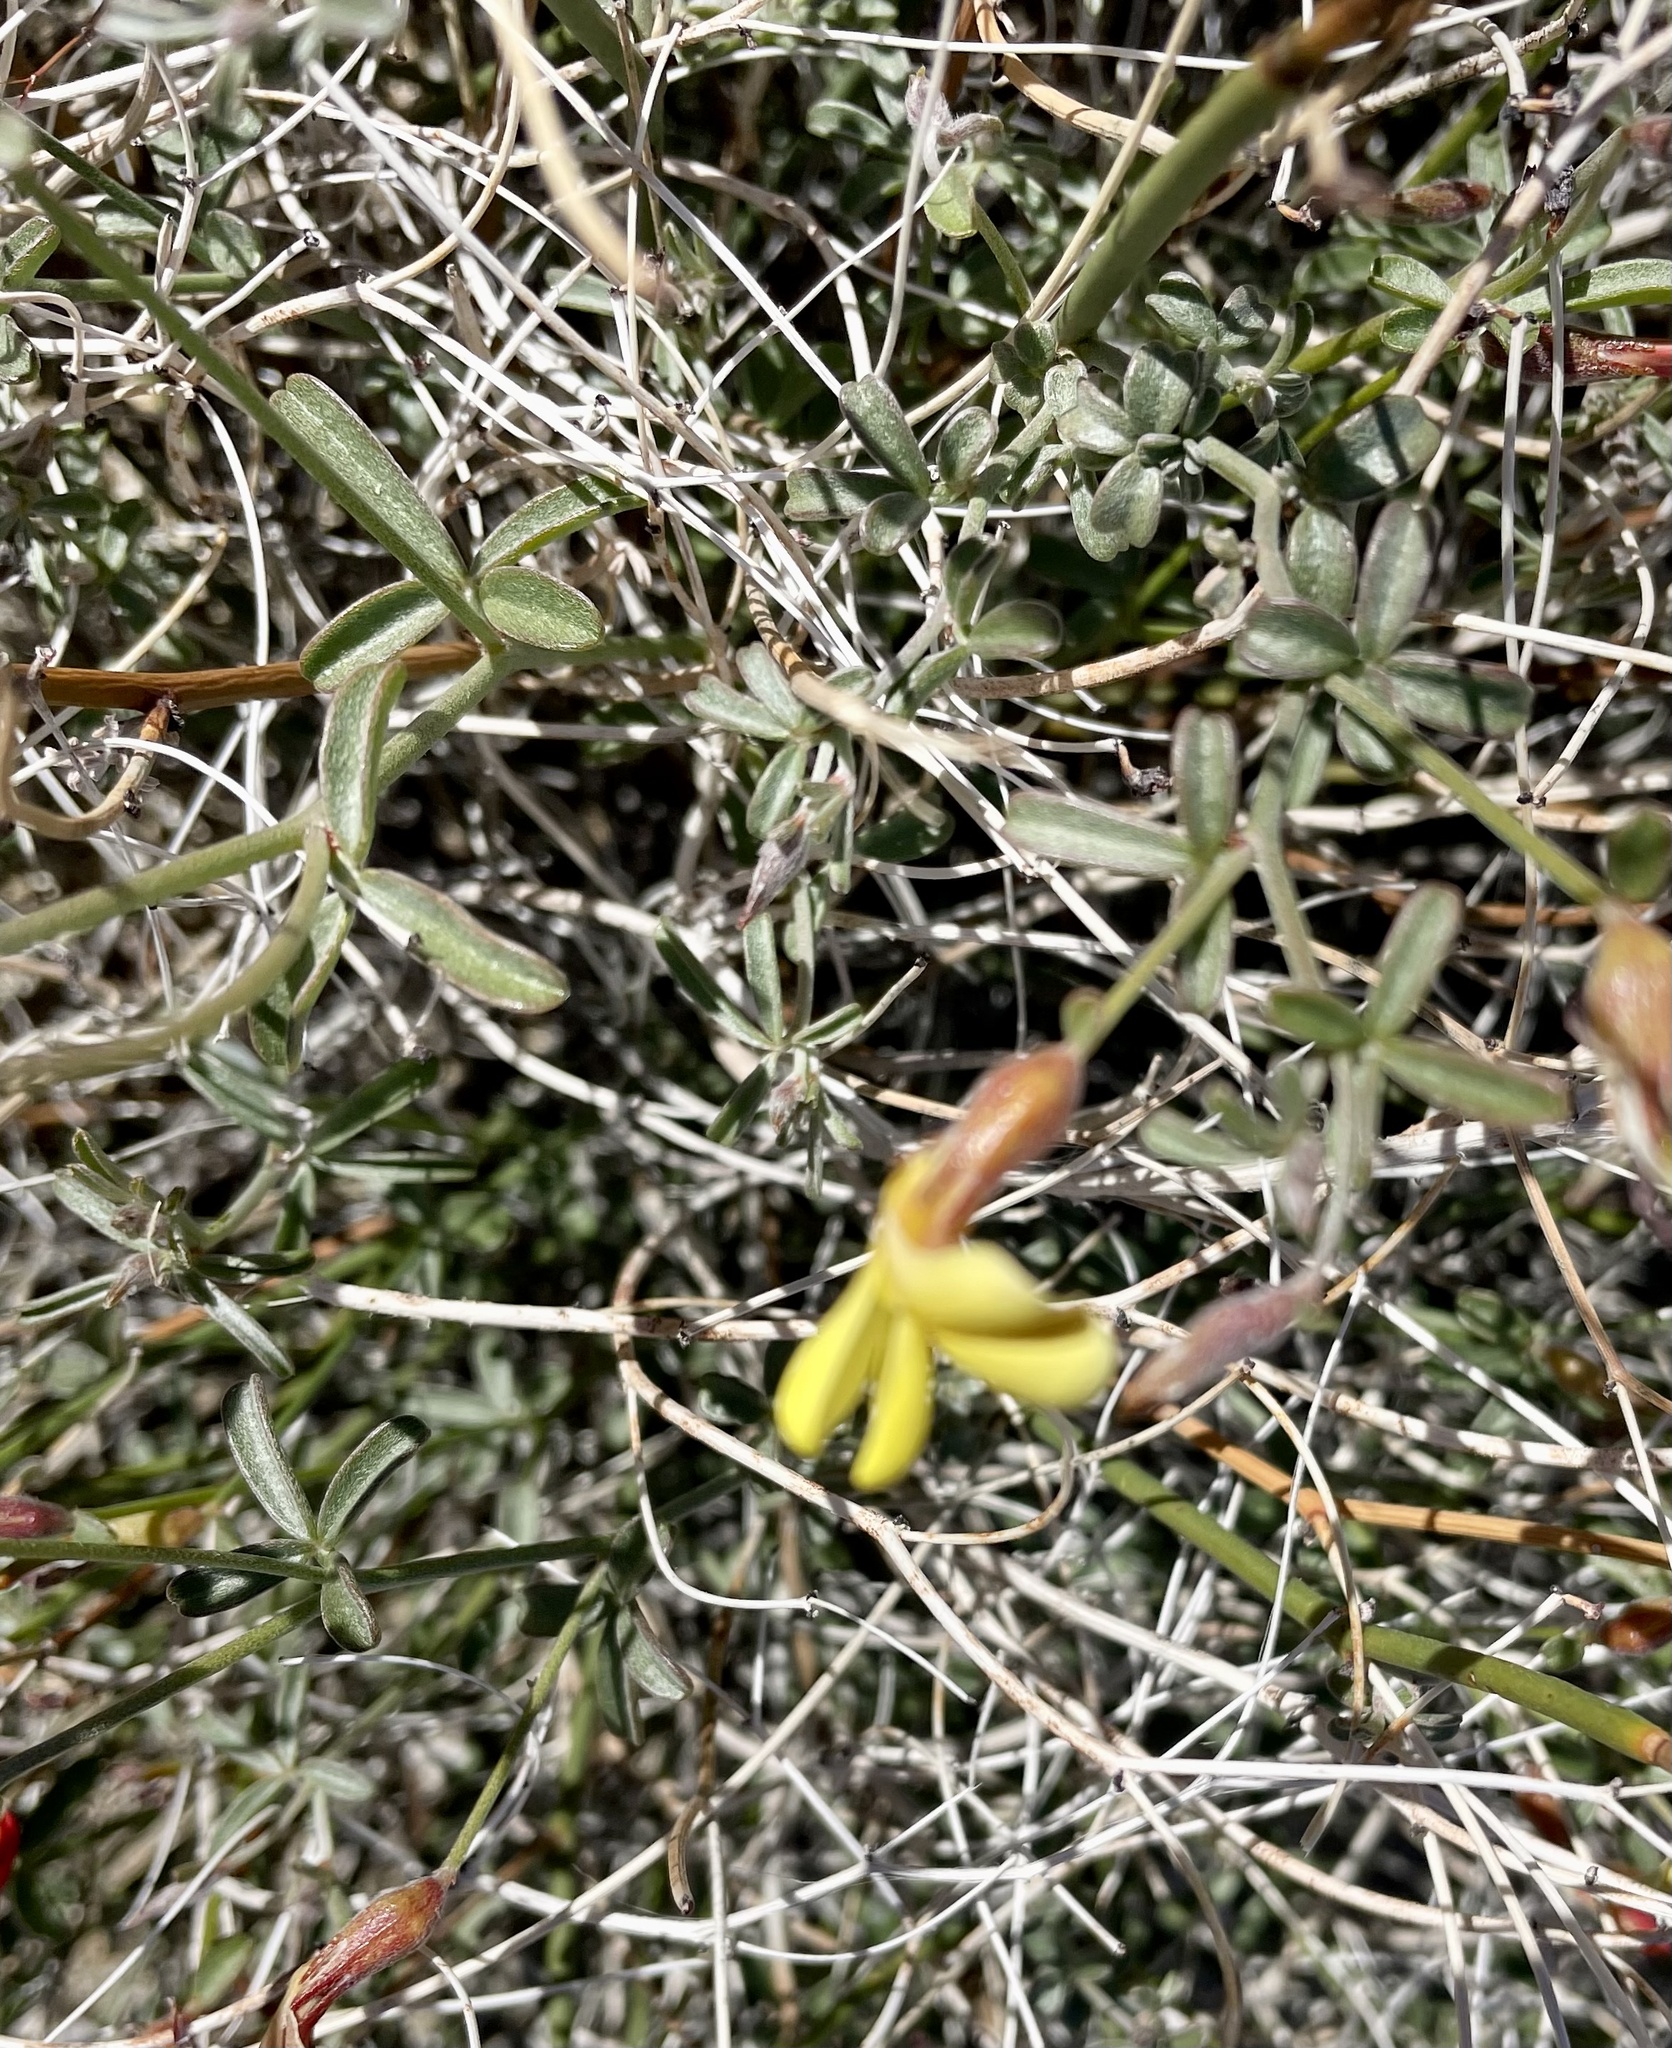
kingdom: Plantae
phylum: Tracheophyta
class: Magnoliopsida
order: Fabales
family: Fabaceae
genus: Acmispon
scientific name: Acmispon rigidus
